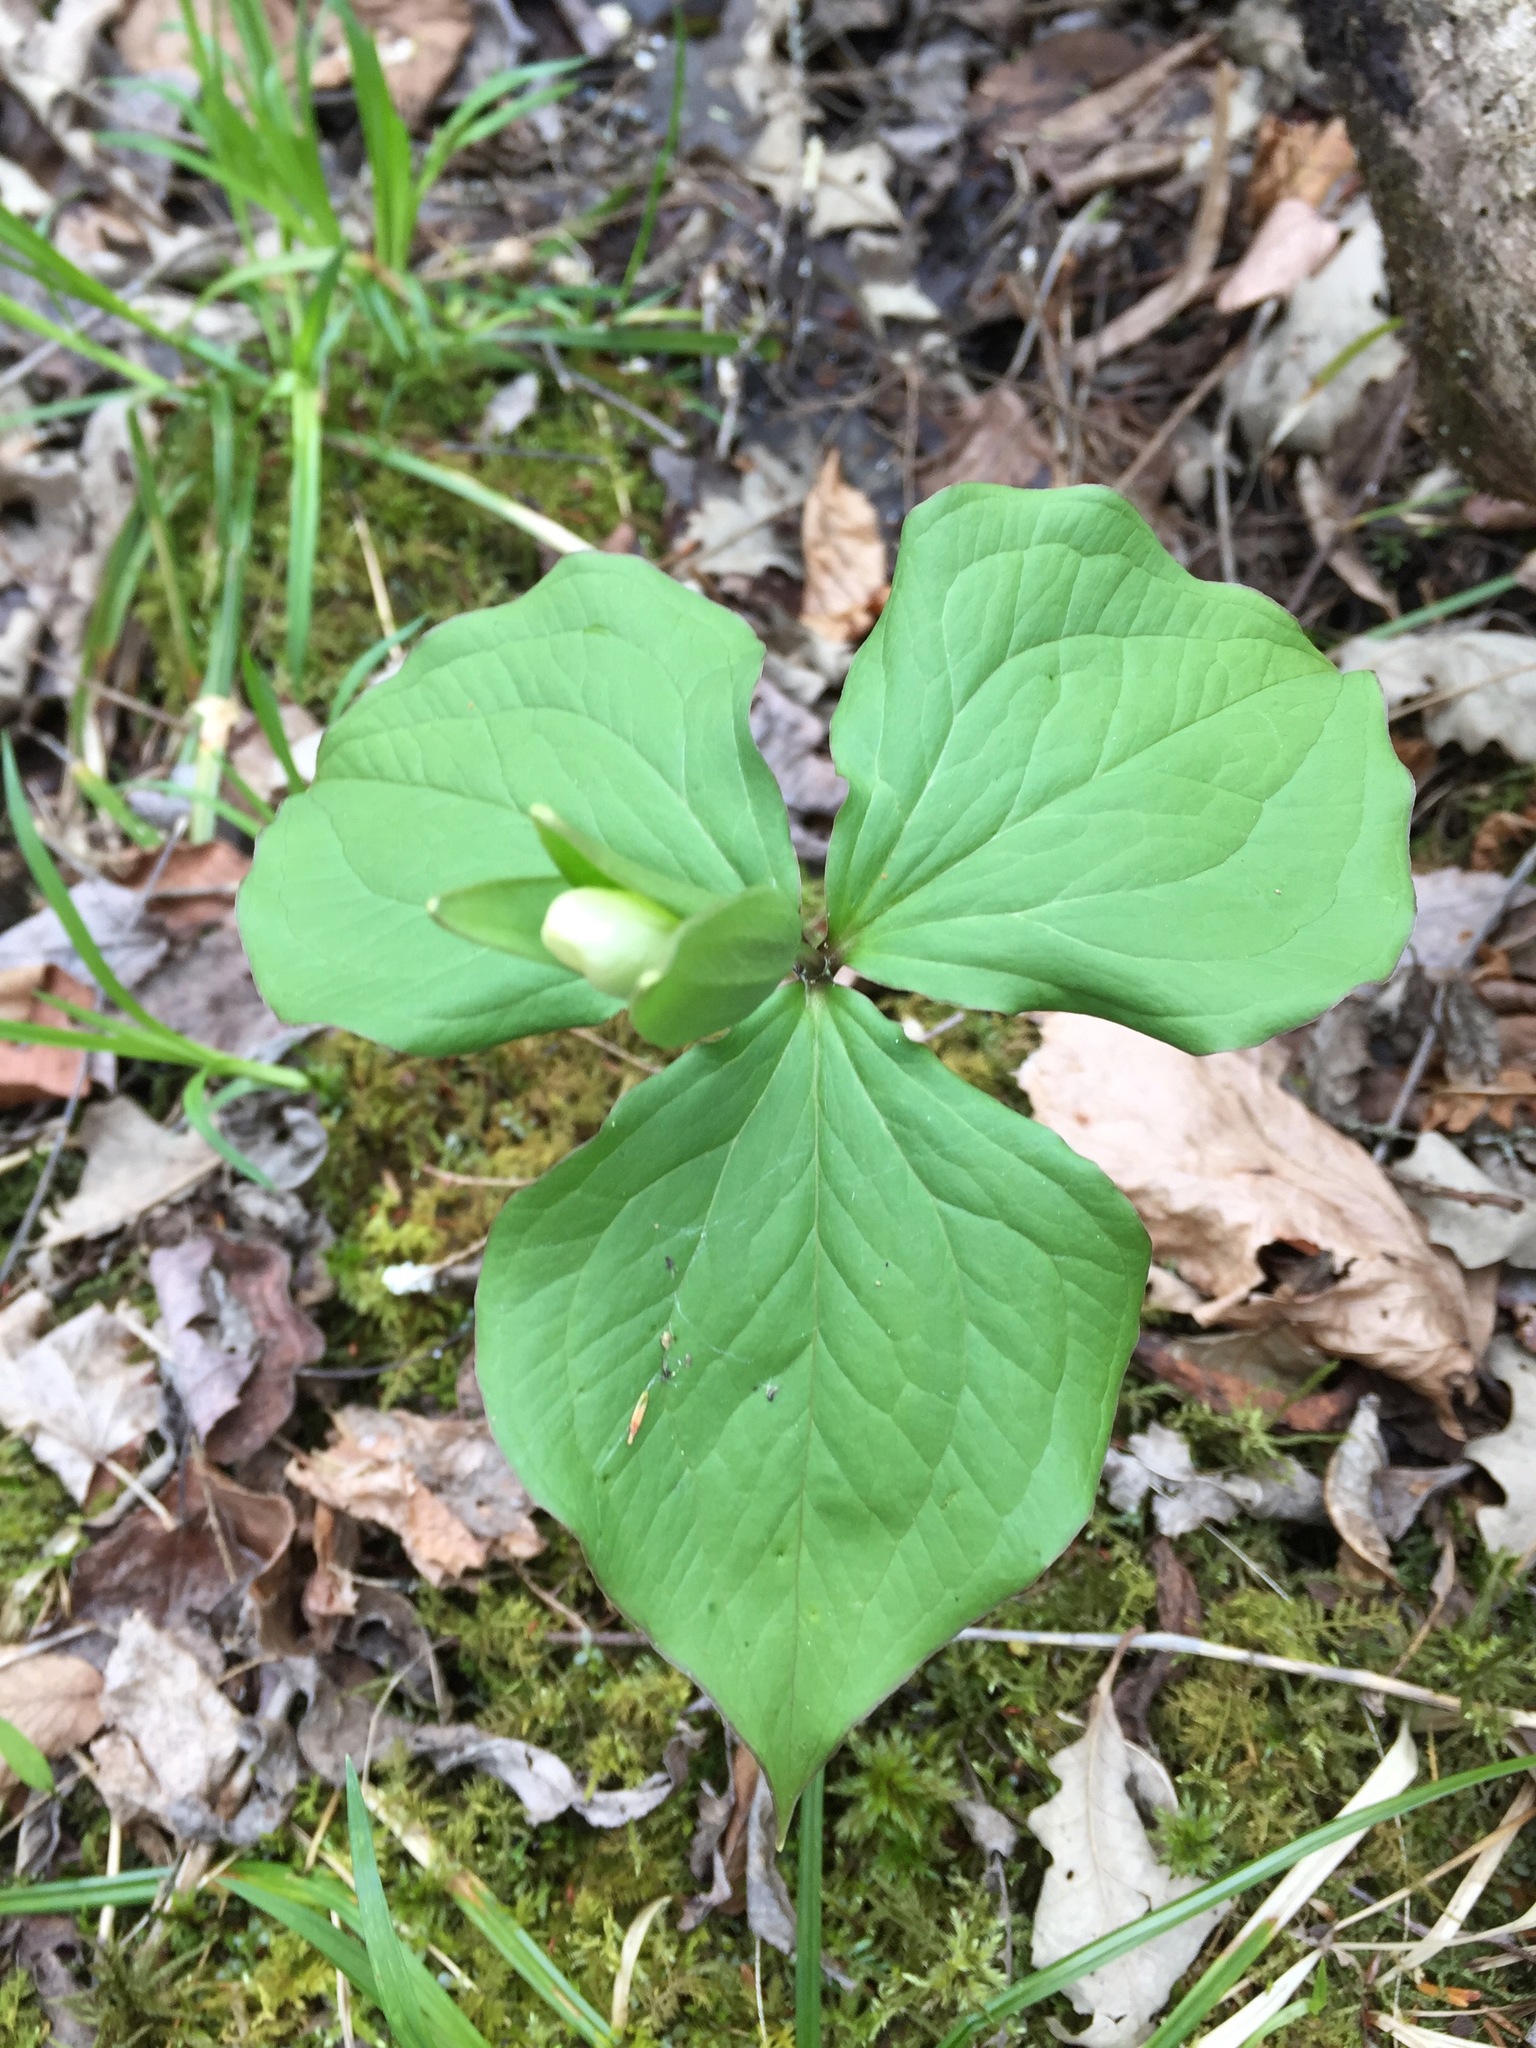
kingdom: Plantae
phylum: Tracheophyta
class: Liliopsida
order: Liliales
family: Melanthiaceae
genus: Trillium
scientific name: Trillium grandiflorum
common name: Great white trillium
